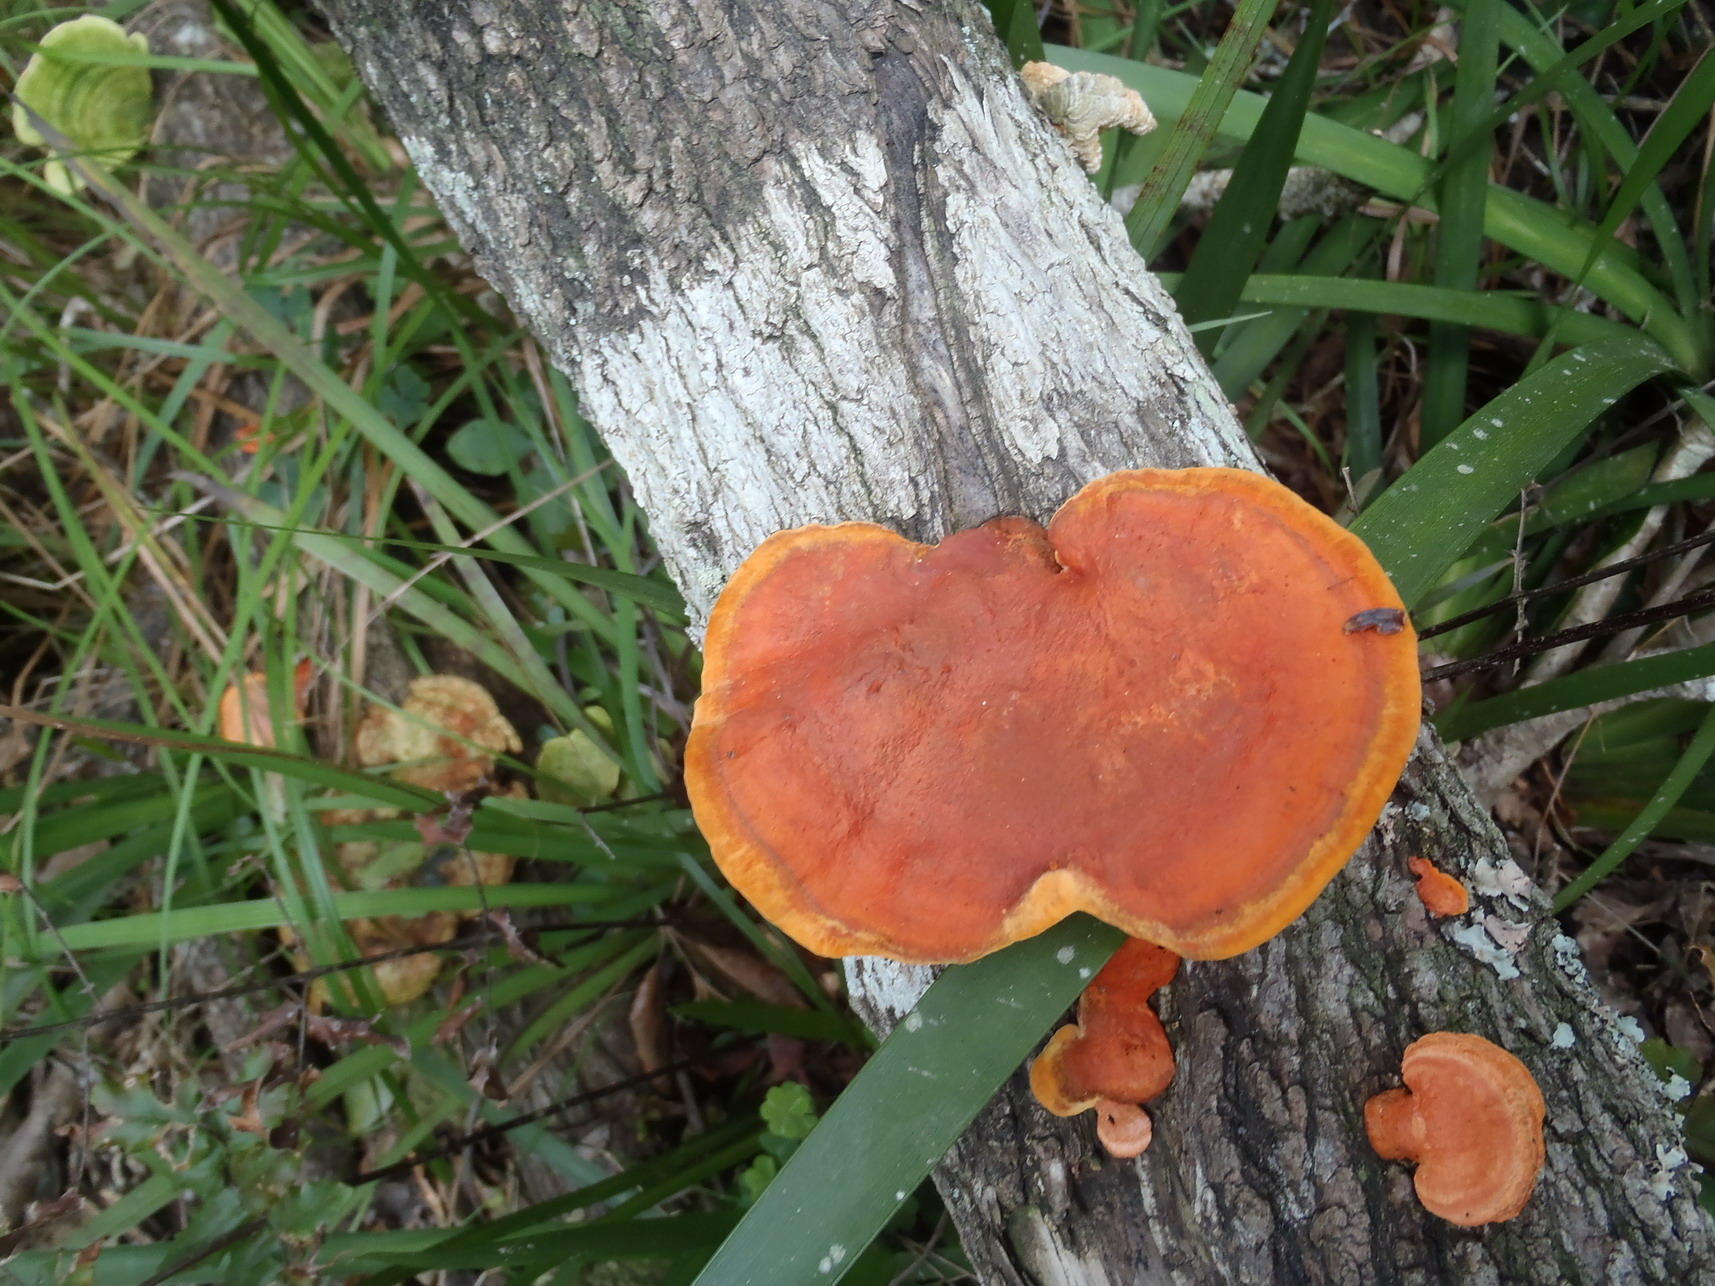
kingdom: Fungi
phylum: Basidiomycota
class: Agaricomycetes
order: Polyporales
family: Polyporaceae
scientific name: Polyporaceae
